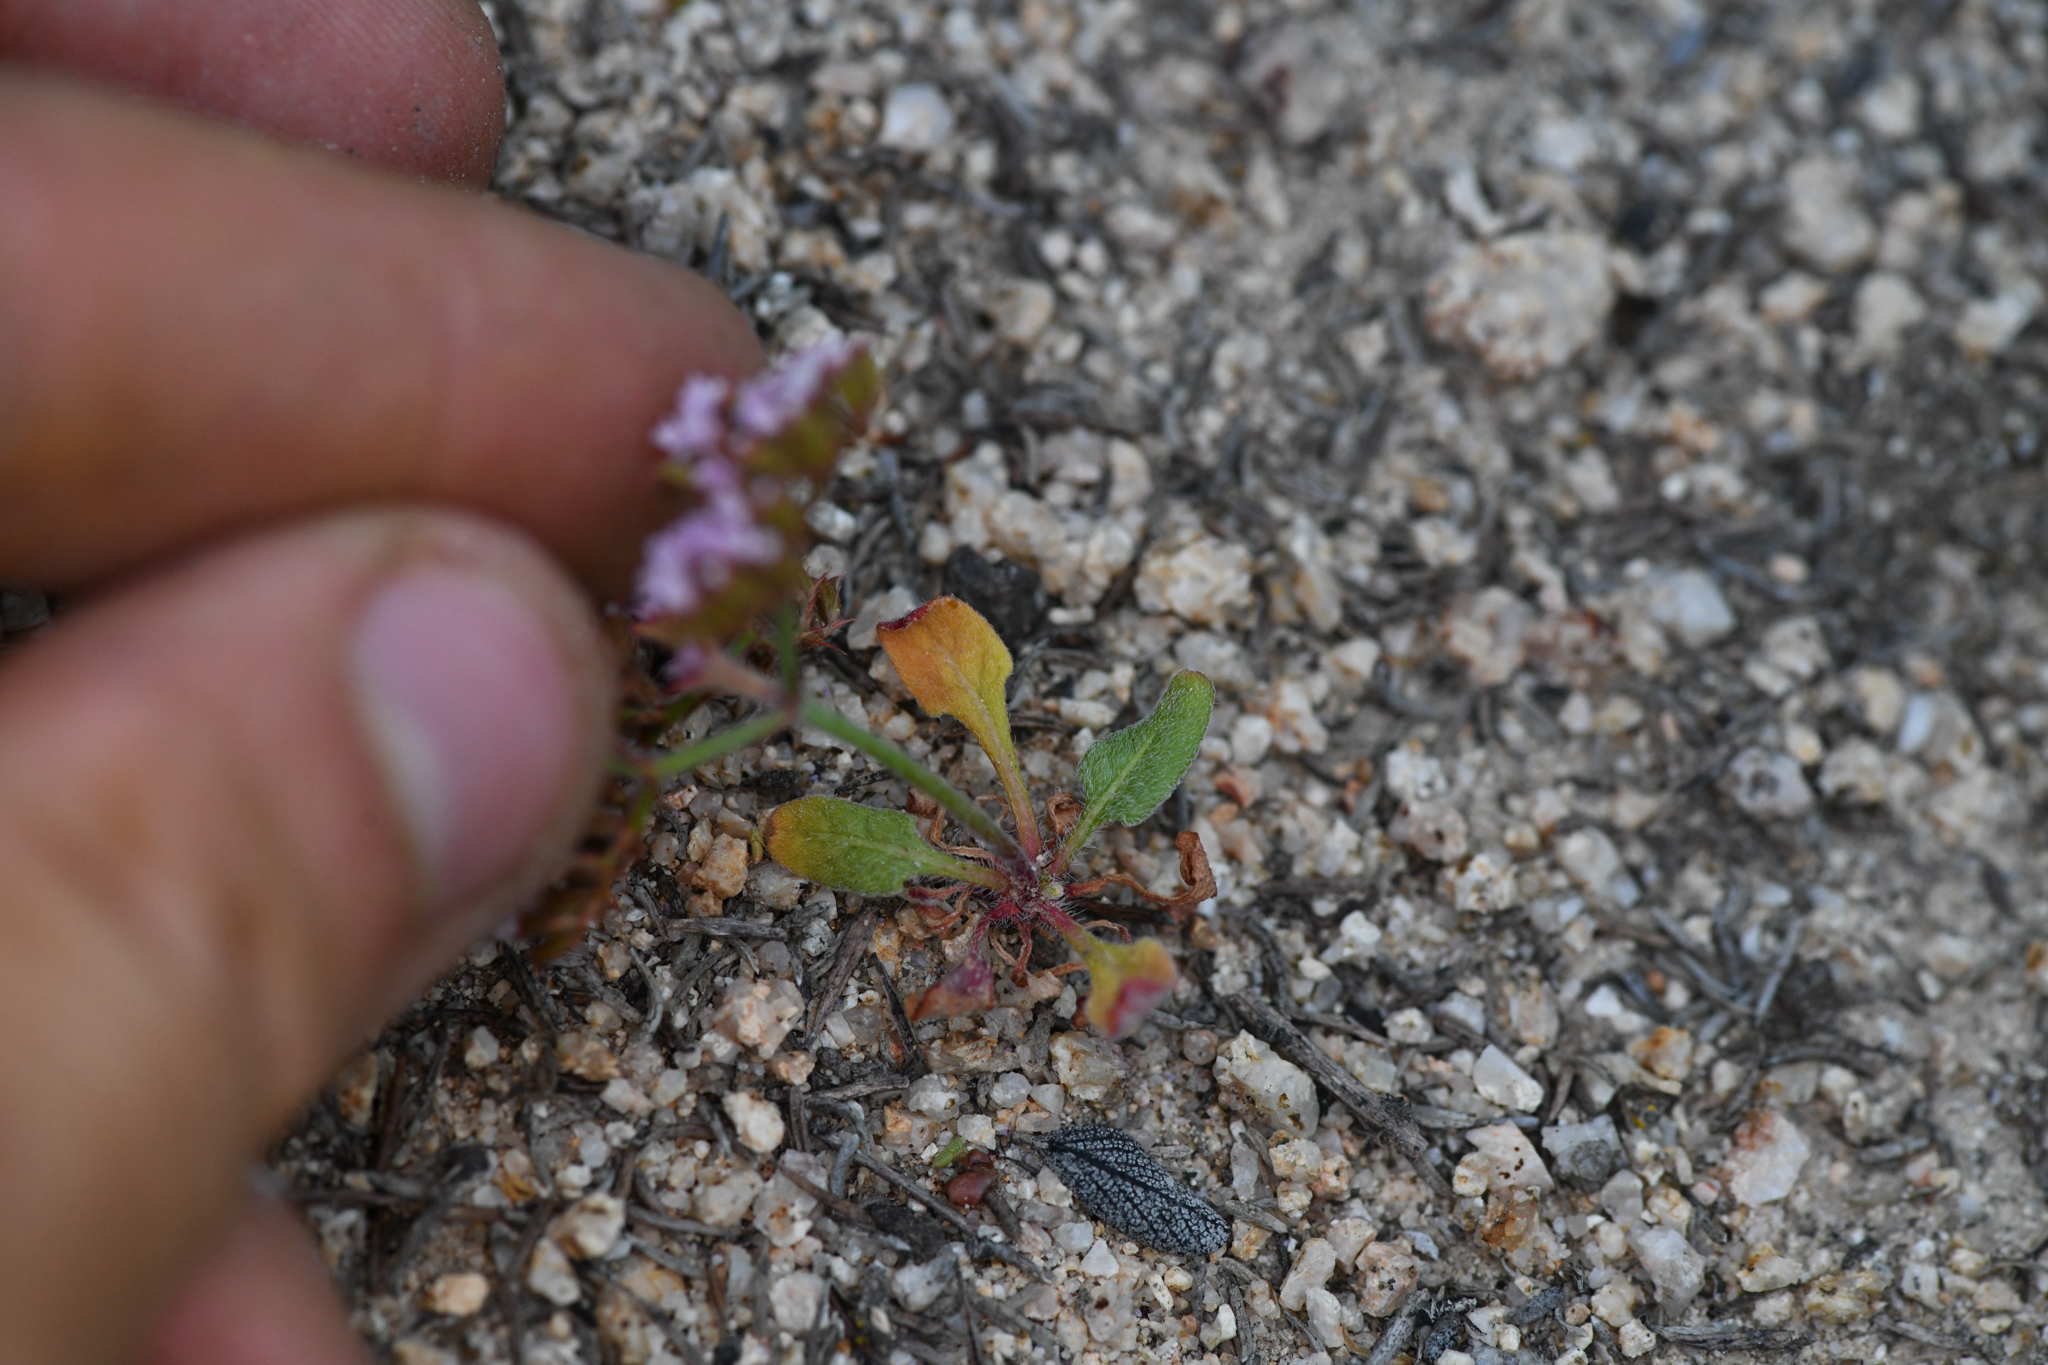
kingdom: Plantae
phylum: Tracheophyta
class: Magnoliopsida
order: Caryophyllales
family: Polygonaceae
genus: Chorizanthe
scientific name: Chorizanthe staticoides
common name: Turkish rugging
